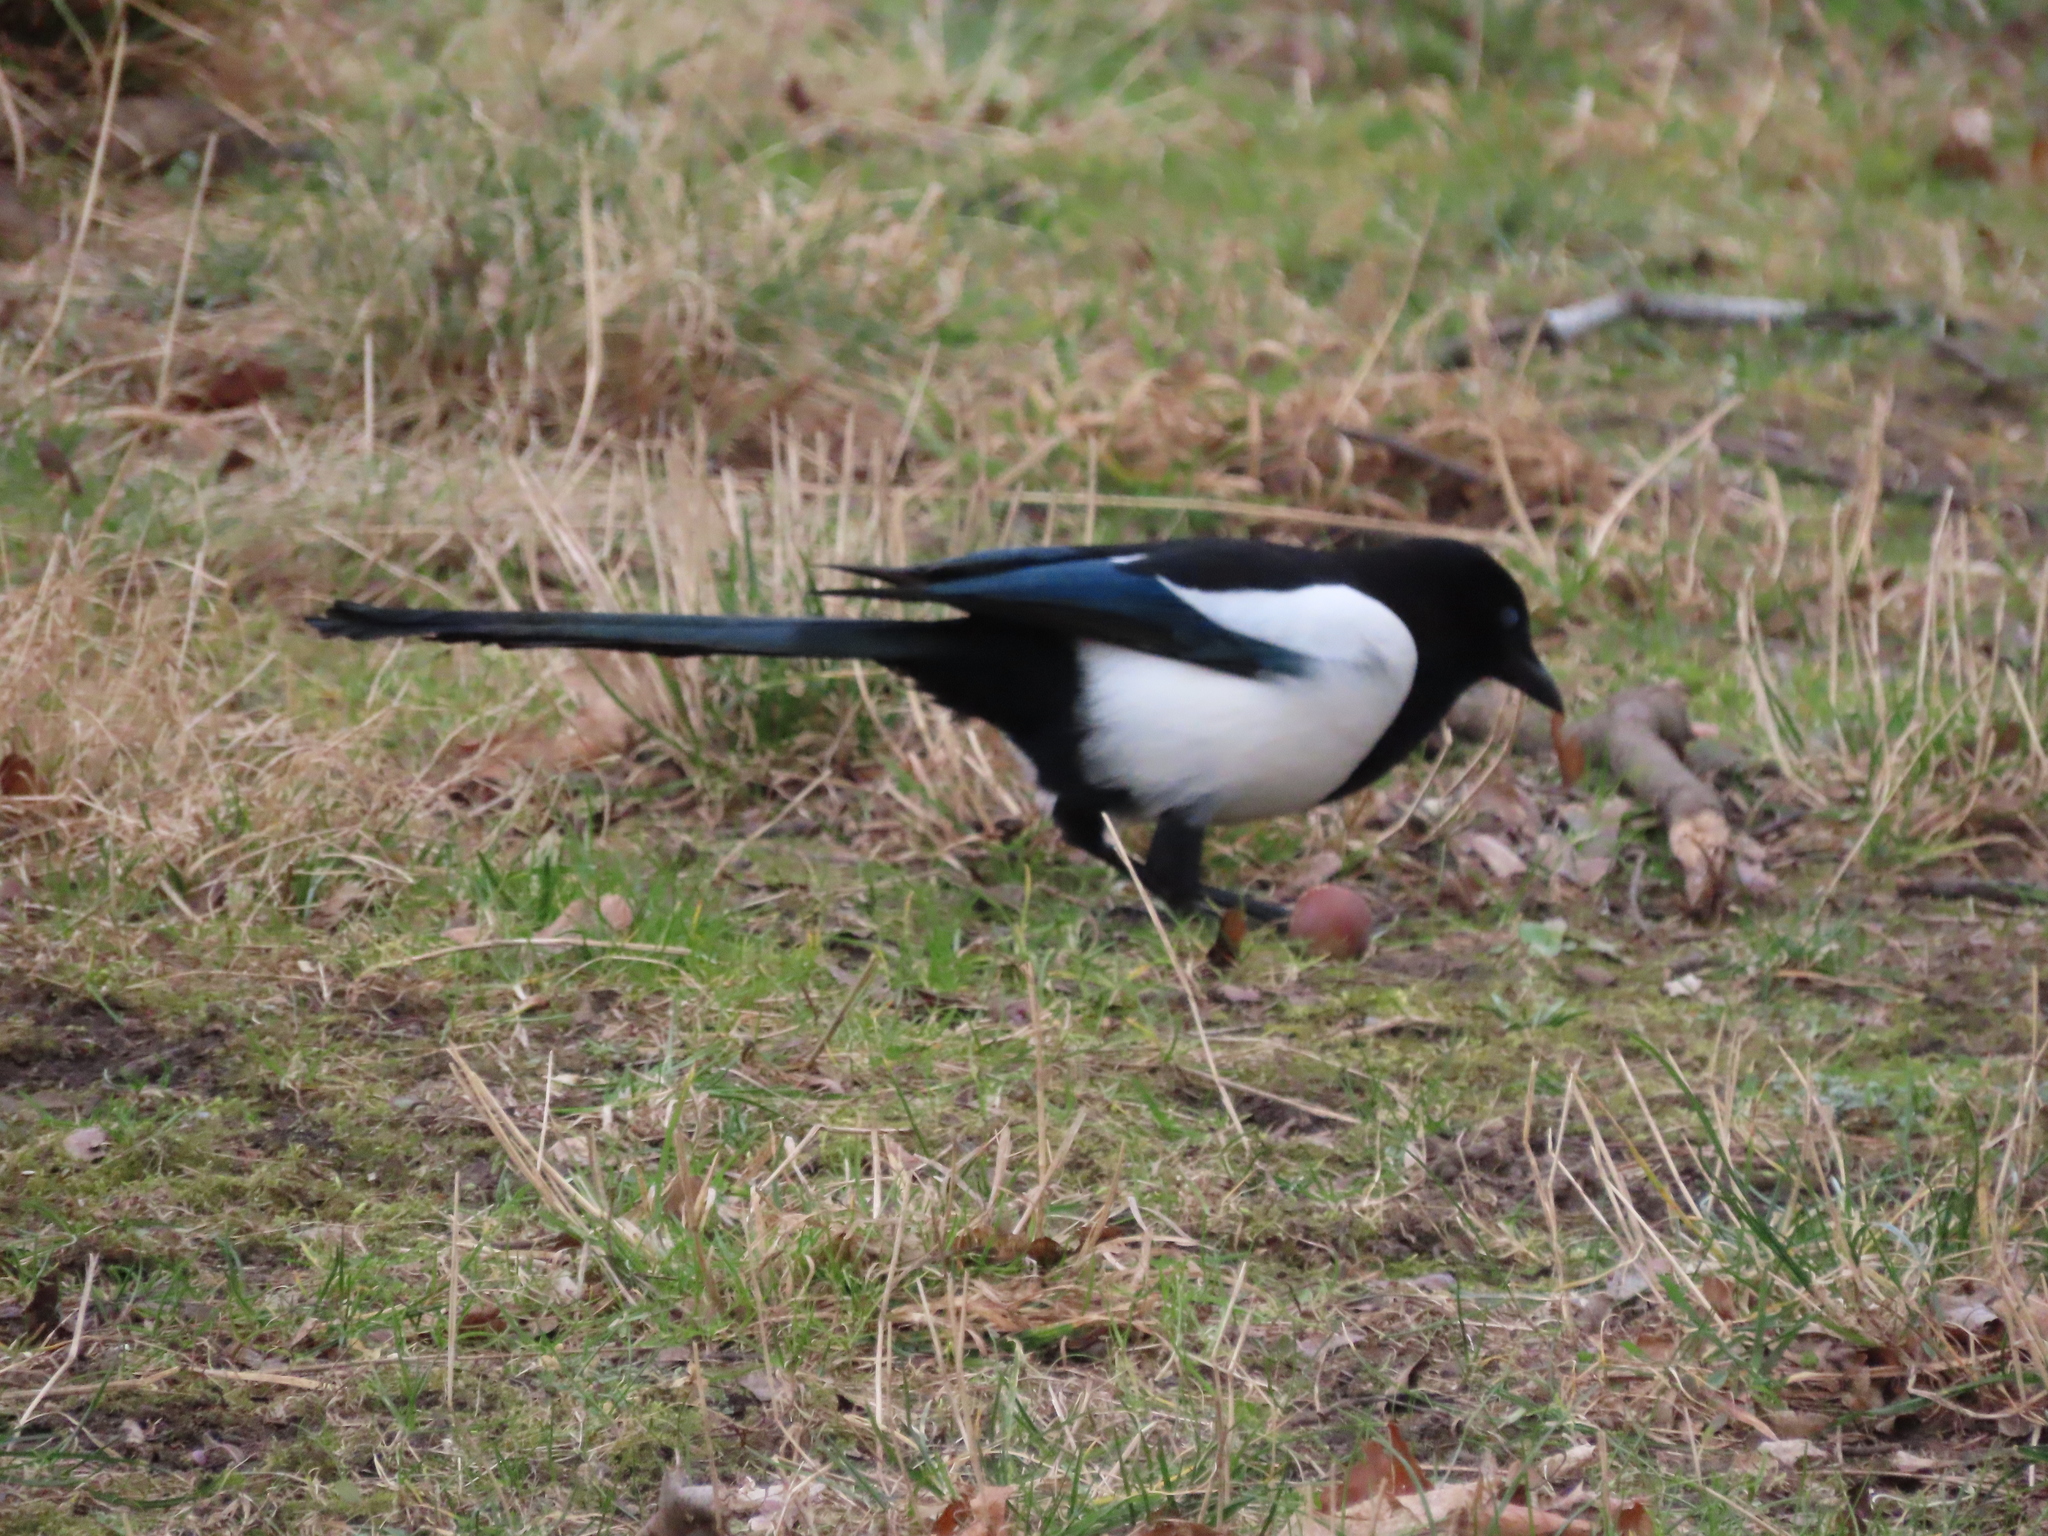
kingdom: Animalia
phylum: Chordata
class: Aves
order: Passeriformes
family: Corvidae
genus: Pica
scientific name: Pica pica
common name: Eurasian magpie
